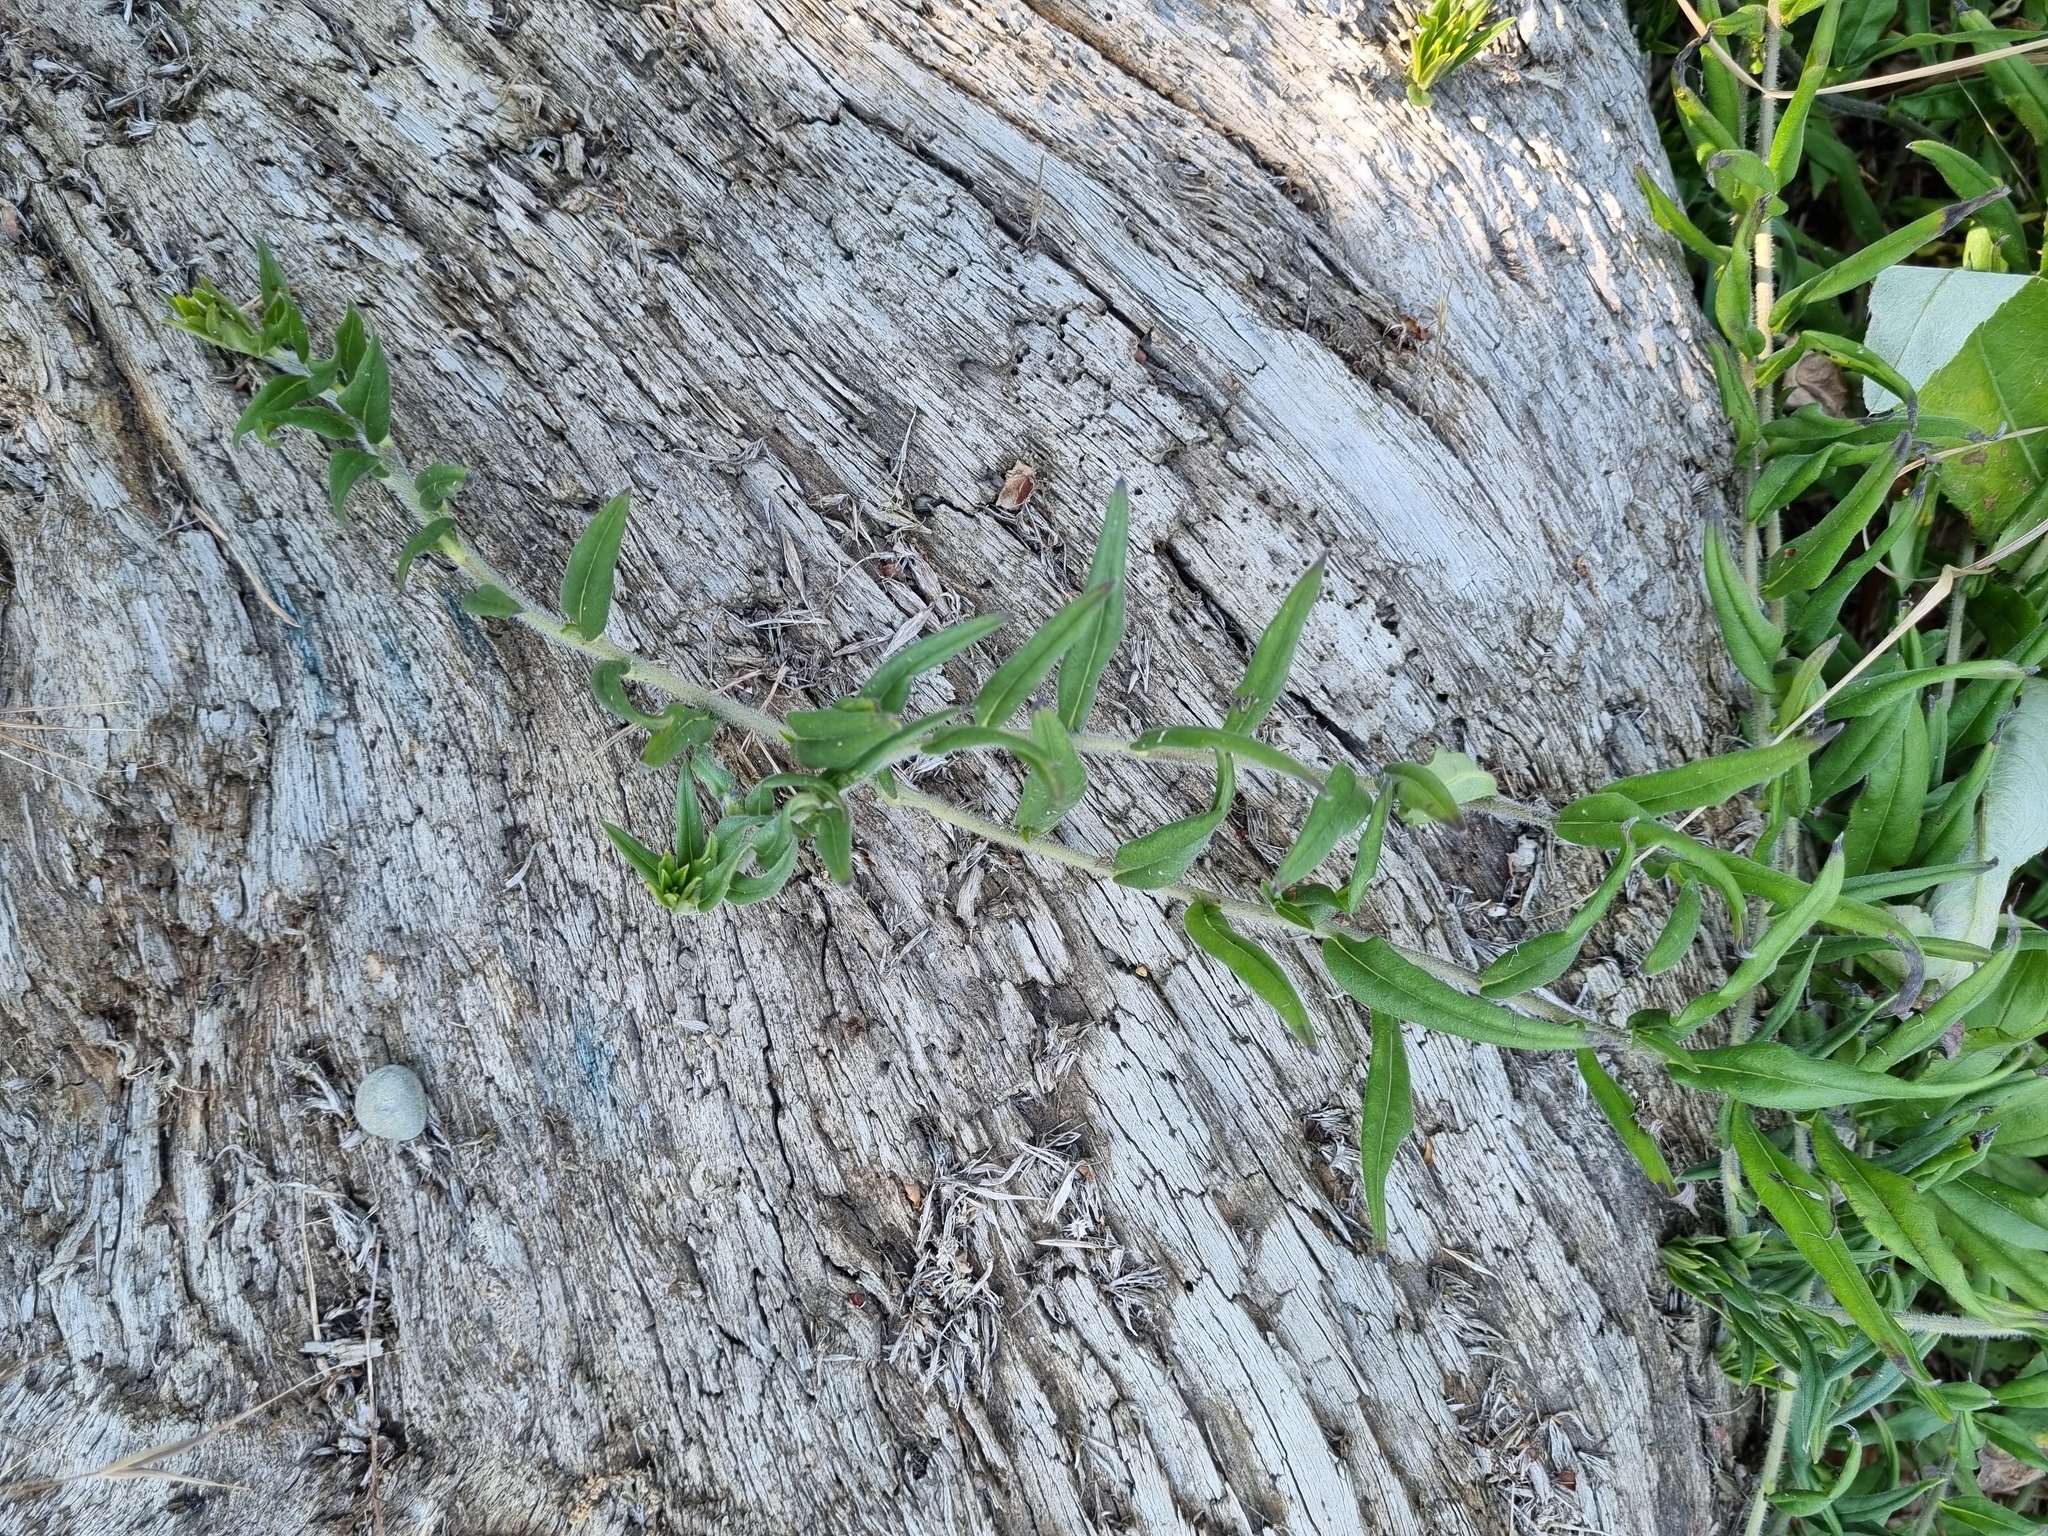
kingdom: Plantae
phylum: Tracheophyta
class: Magnoliopsida
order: Boraginales
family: Boraginaceae
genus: Aegonychon
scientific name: Aegonychon purpurocaeruleum
